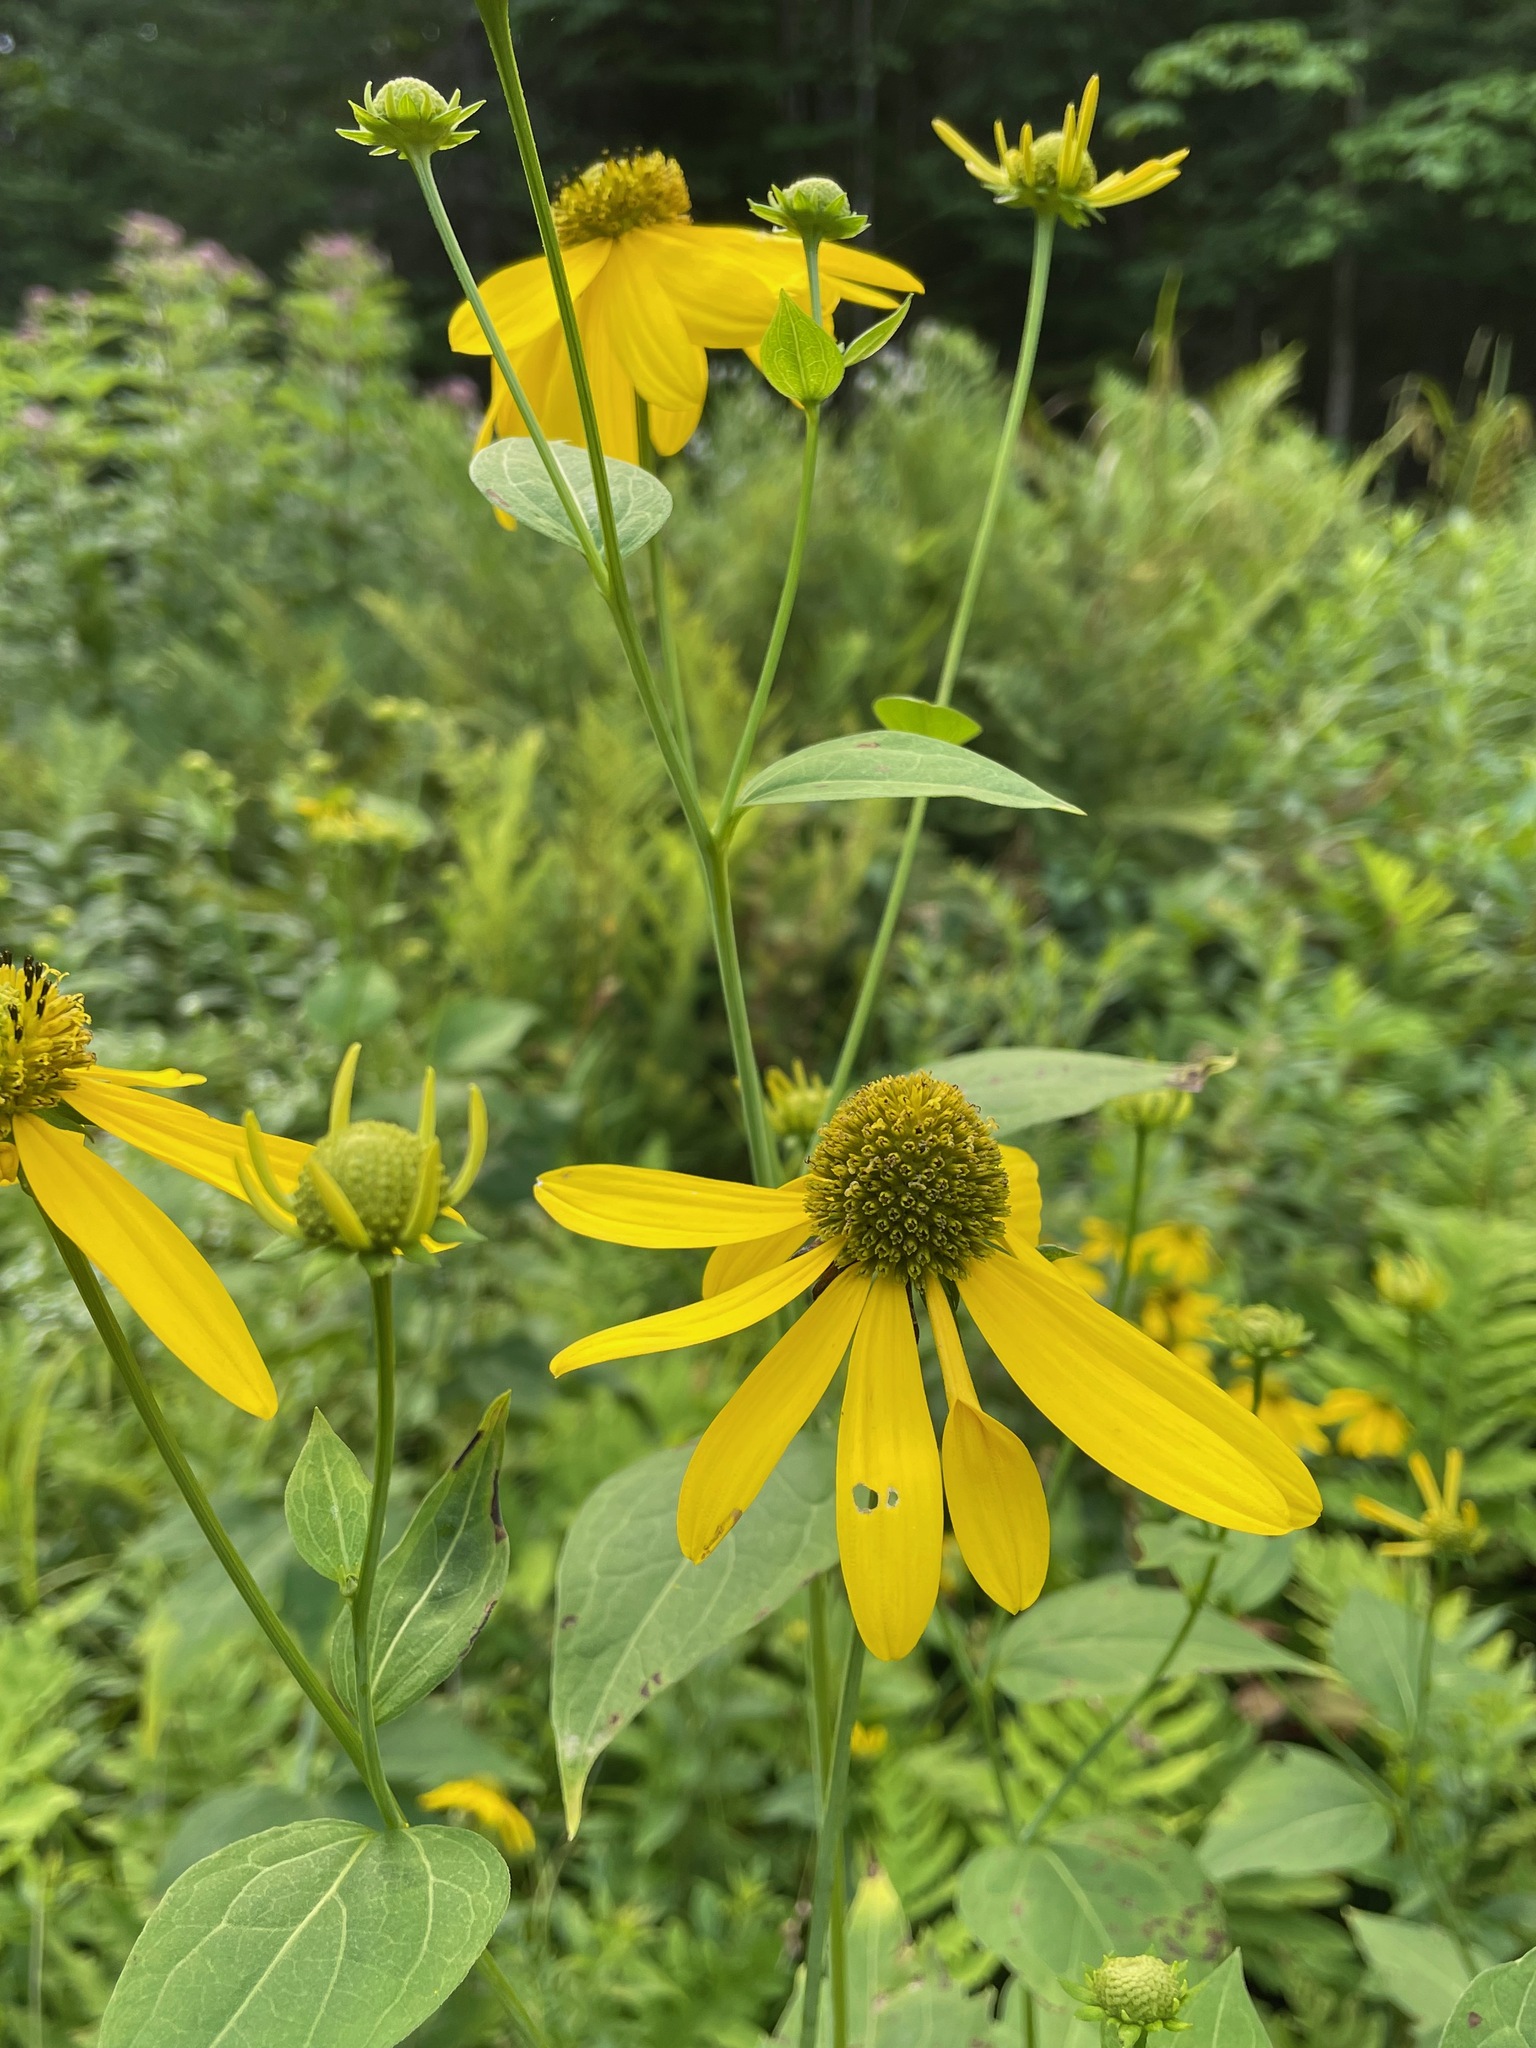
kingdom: Plantae
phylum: Tracheophyta
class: Magnoliopsida
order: Asterales
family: Asteraceae
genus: Rudbeckia
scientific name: Rudbeckia laciniata
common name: Coneflower
